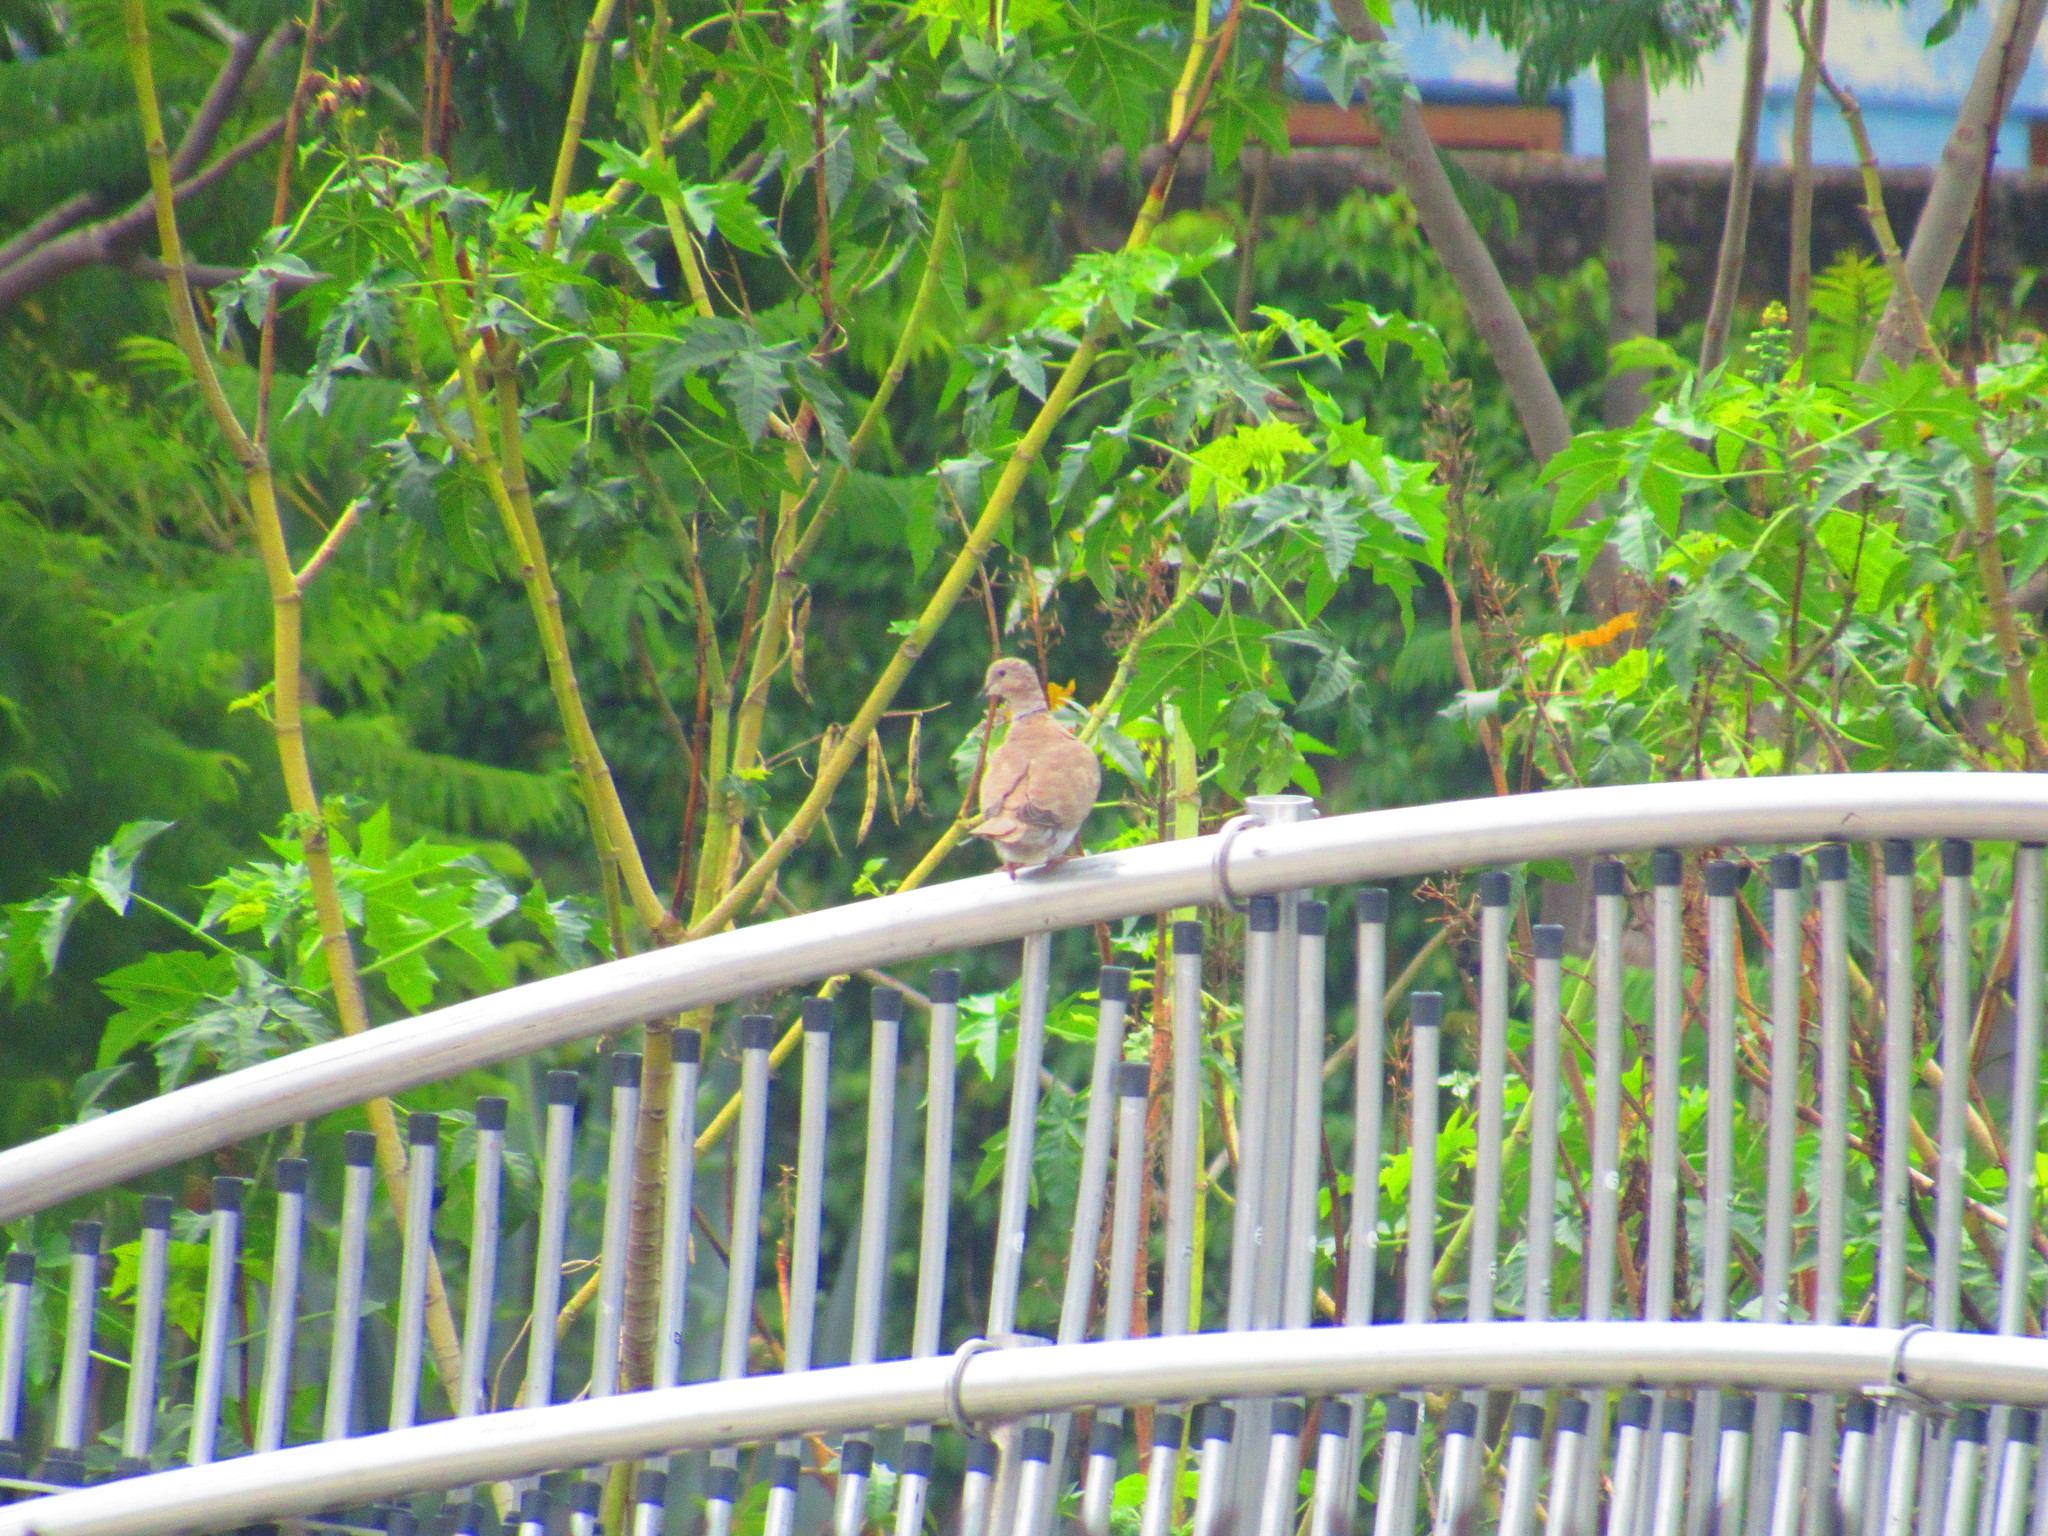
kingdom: Plantae
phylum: Tracheophyta
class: Magnoliopsida
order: Malpighiales
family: Euphorbiaceae
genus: Ricinus
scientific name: Ricinus communis
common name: Castor-oil-plant
